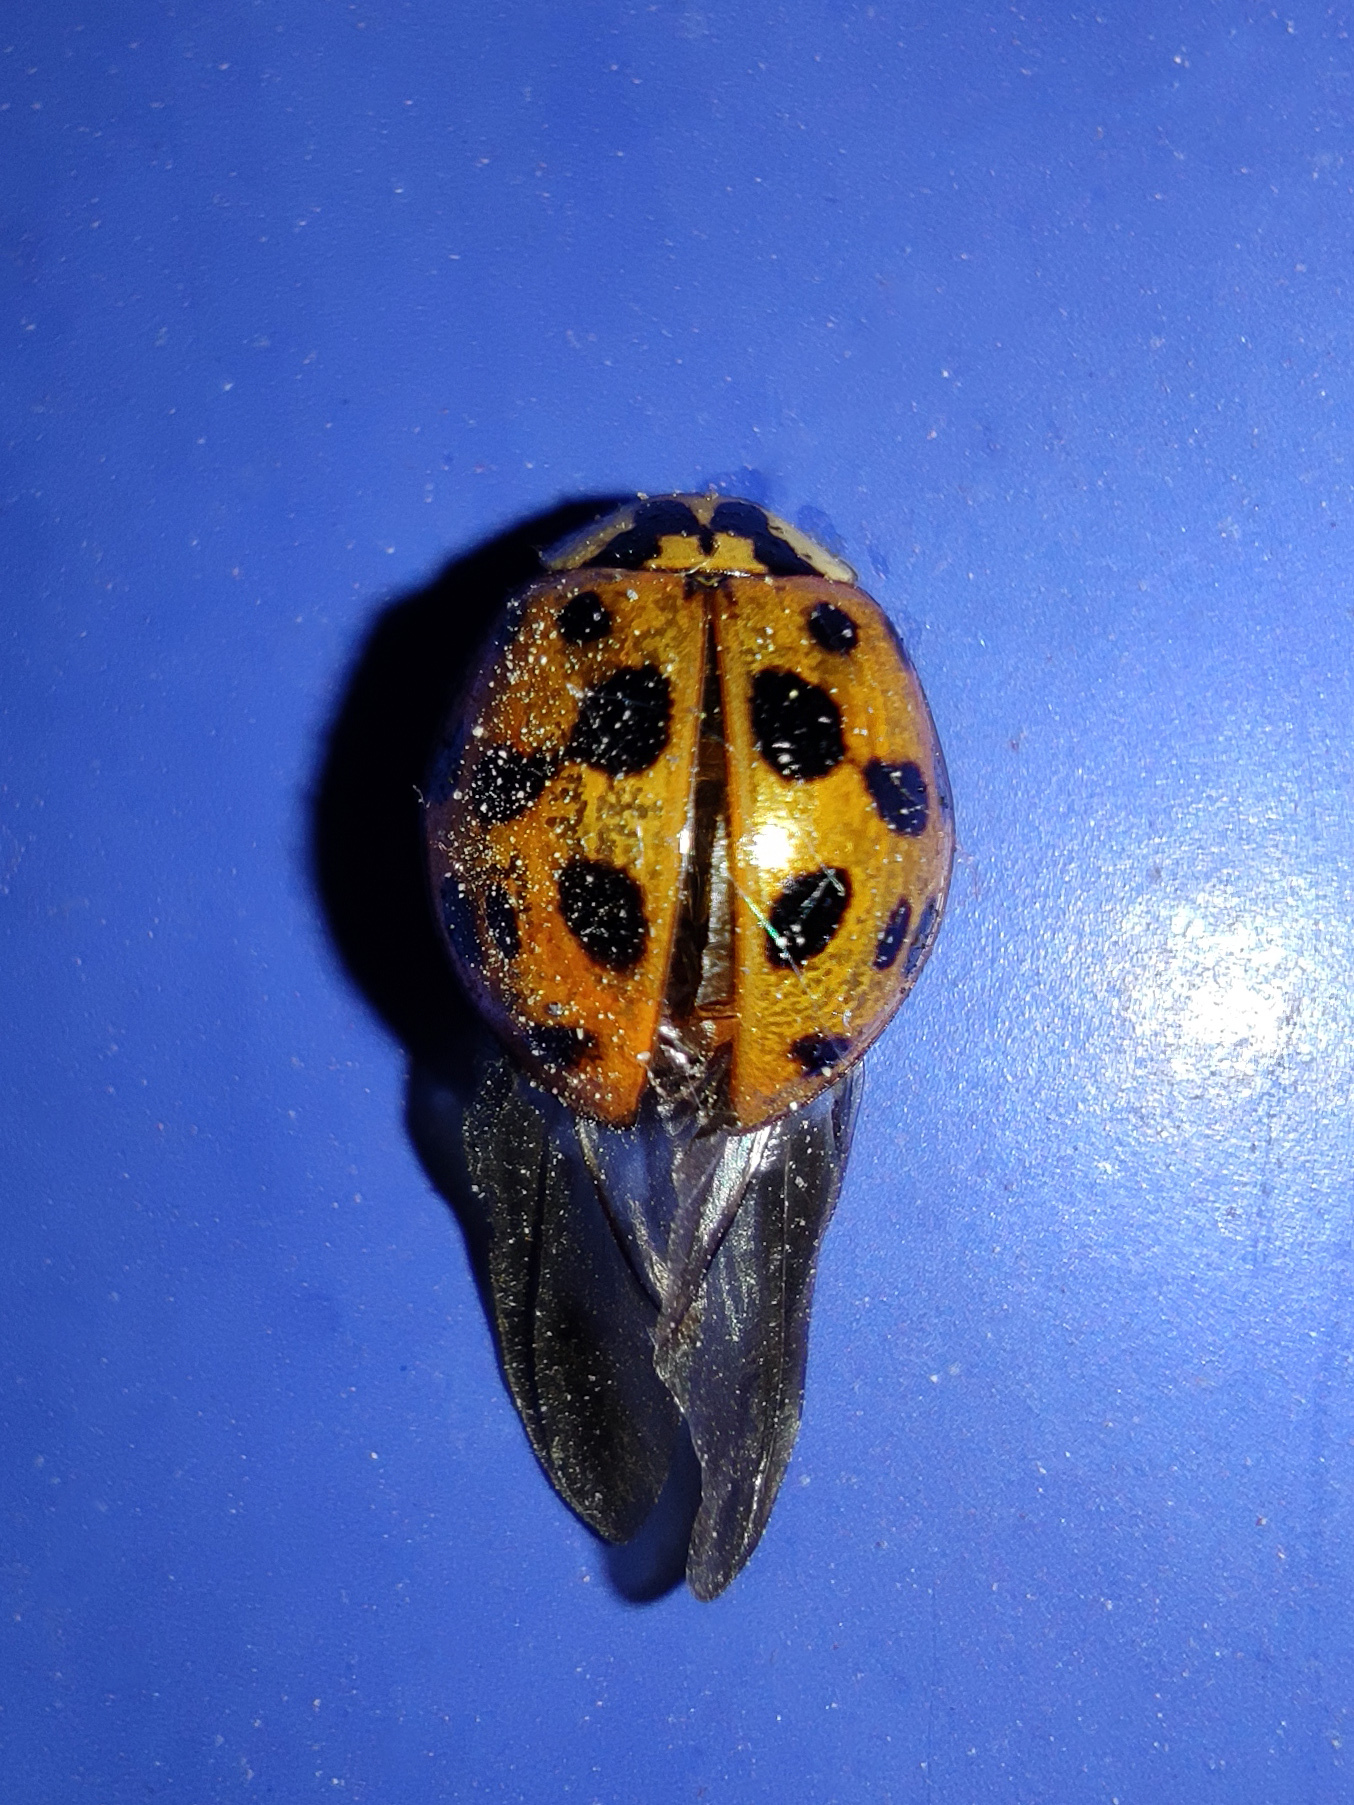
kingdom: Animalia
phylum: Arthropoda
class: Insecta
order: Coleoptera
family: Coccinellidae
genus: Harmonia
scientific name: Harmonia axyridis
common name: Harlequin ladybird
